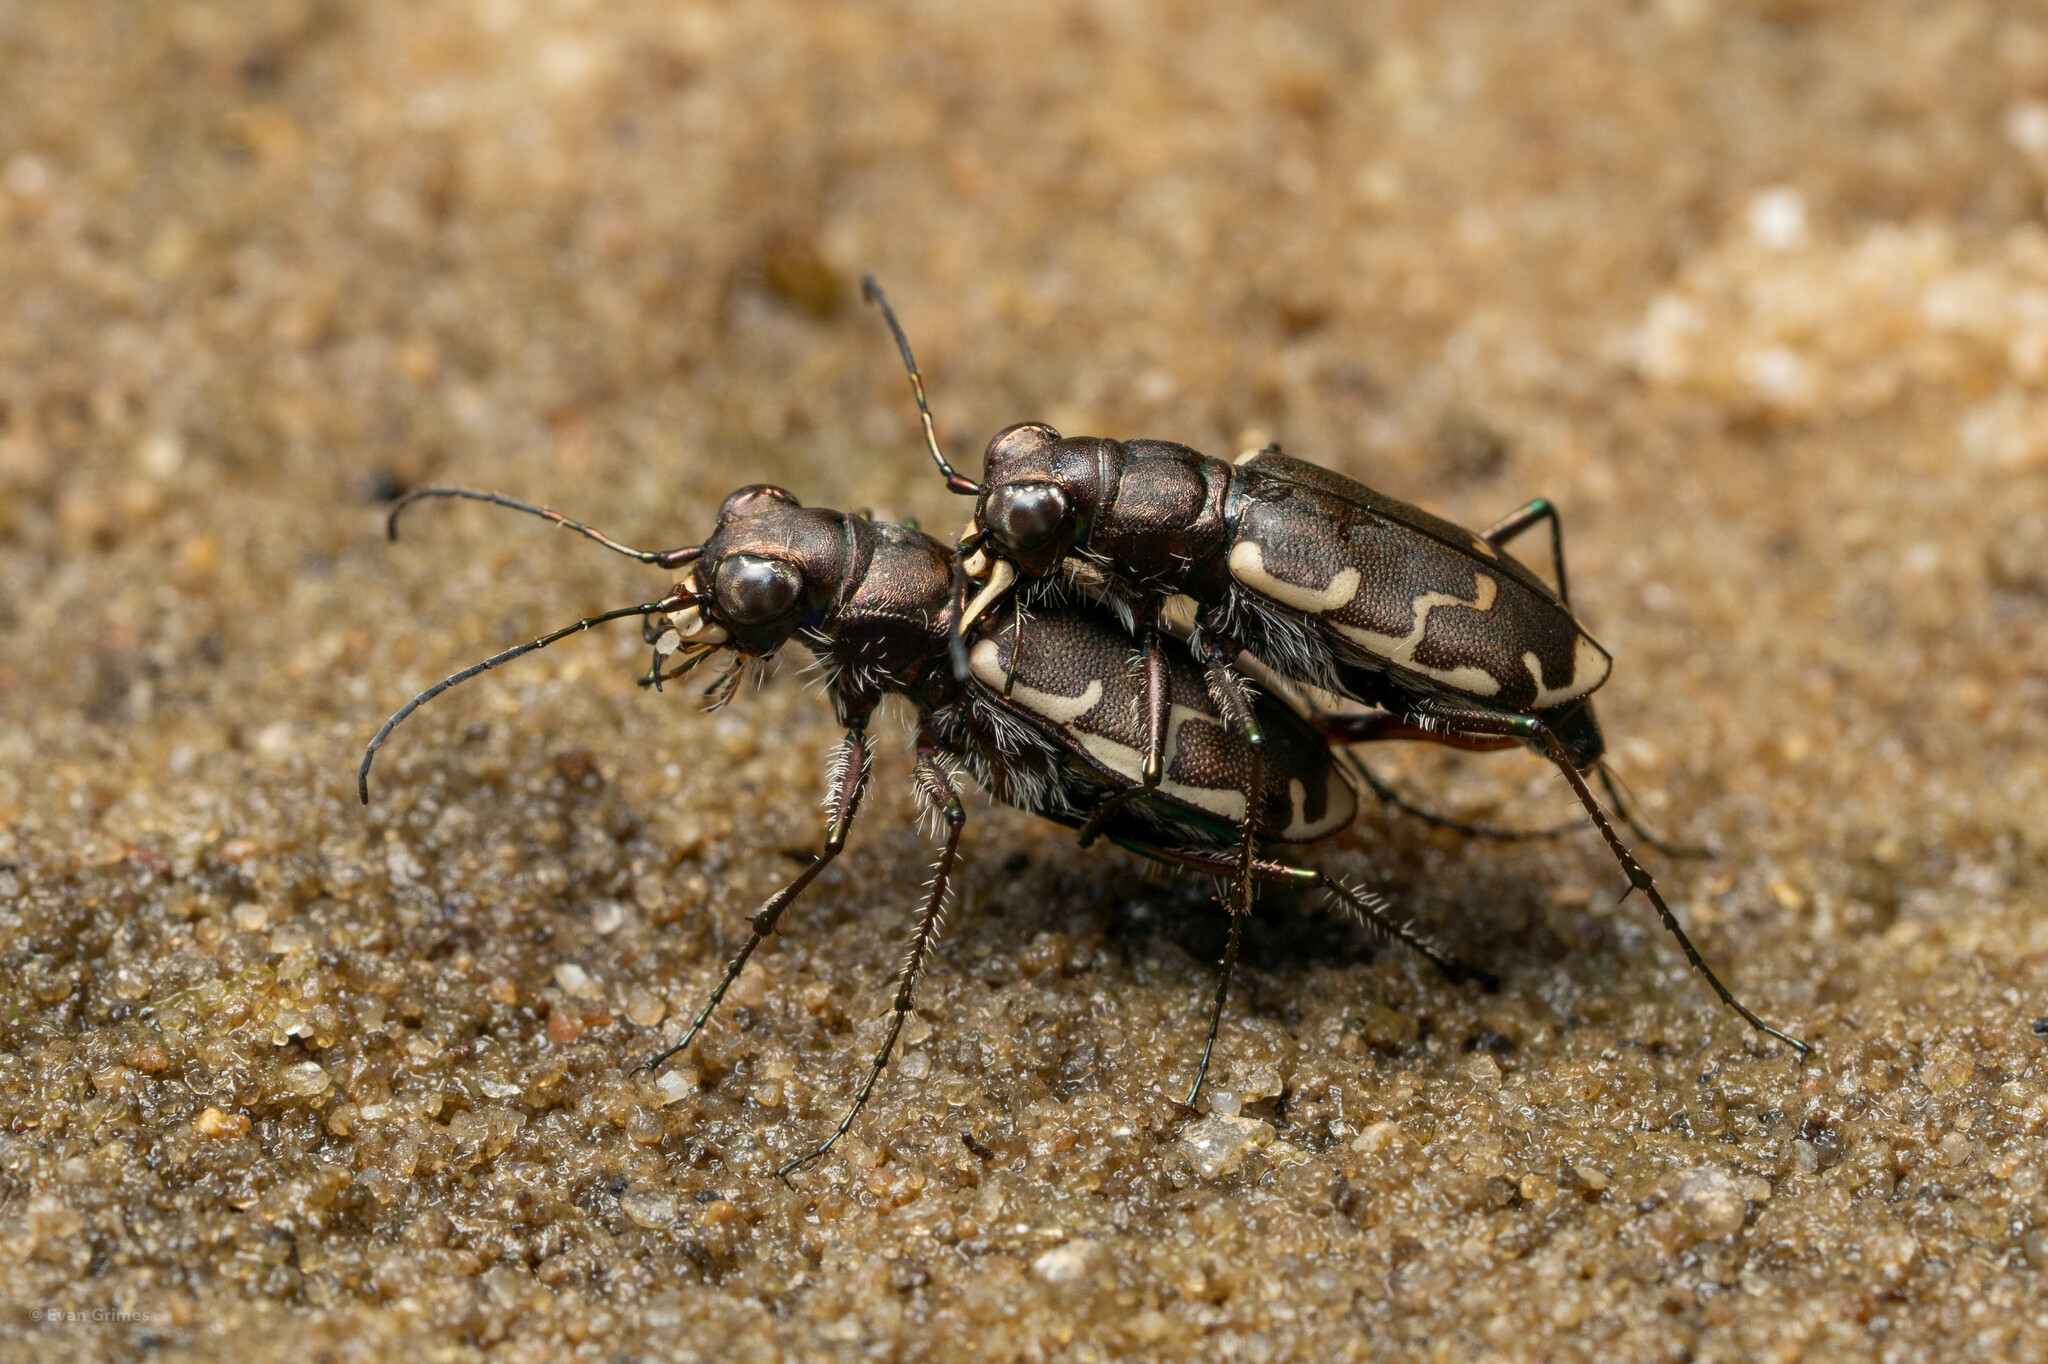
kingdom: Animalia
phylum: Arthropoda
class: Insecta
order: Coleoptera
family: Carabidae
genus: Cicindela
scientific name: Cicindela repanda
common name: Bronzed tiger beetle
